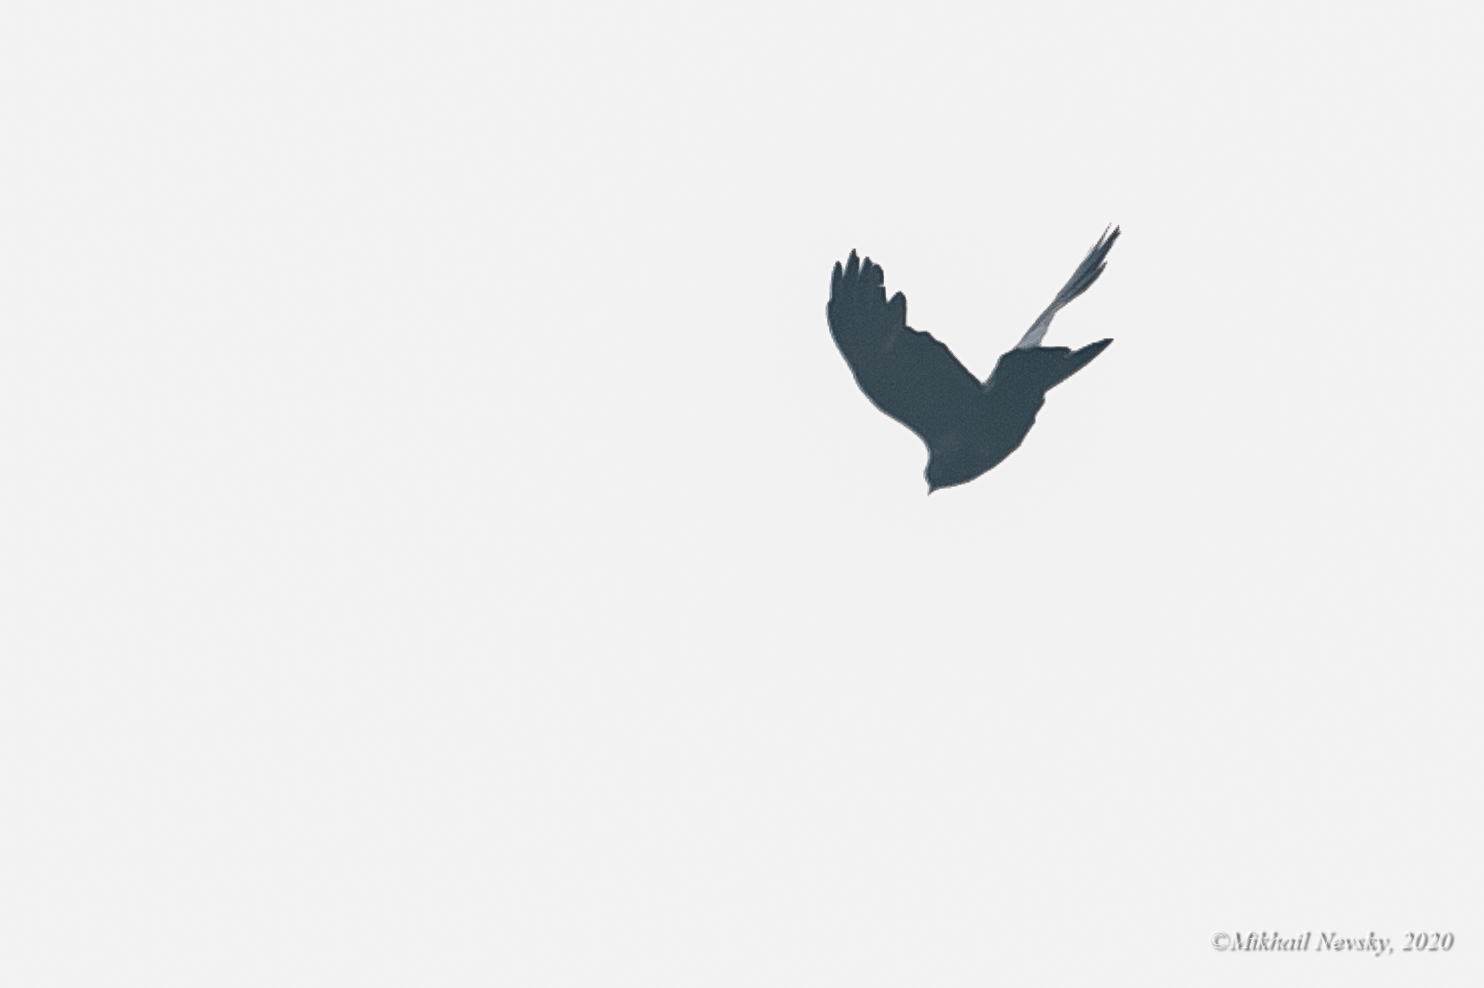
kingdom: Animalia
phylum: Chordata
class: Aves
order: Passeriformes
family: Corvidae
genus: Pyrrhocorax
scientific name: Pyrrhocorax graculus
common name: Alpine chough
